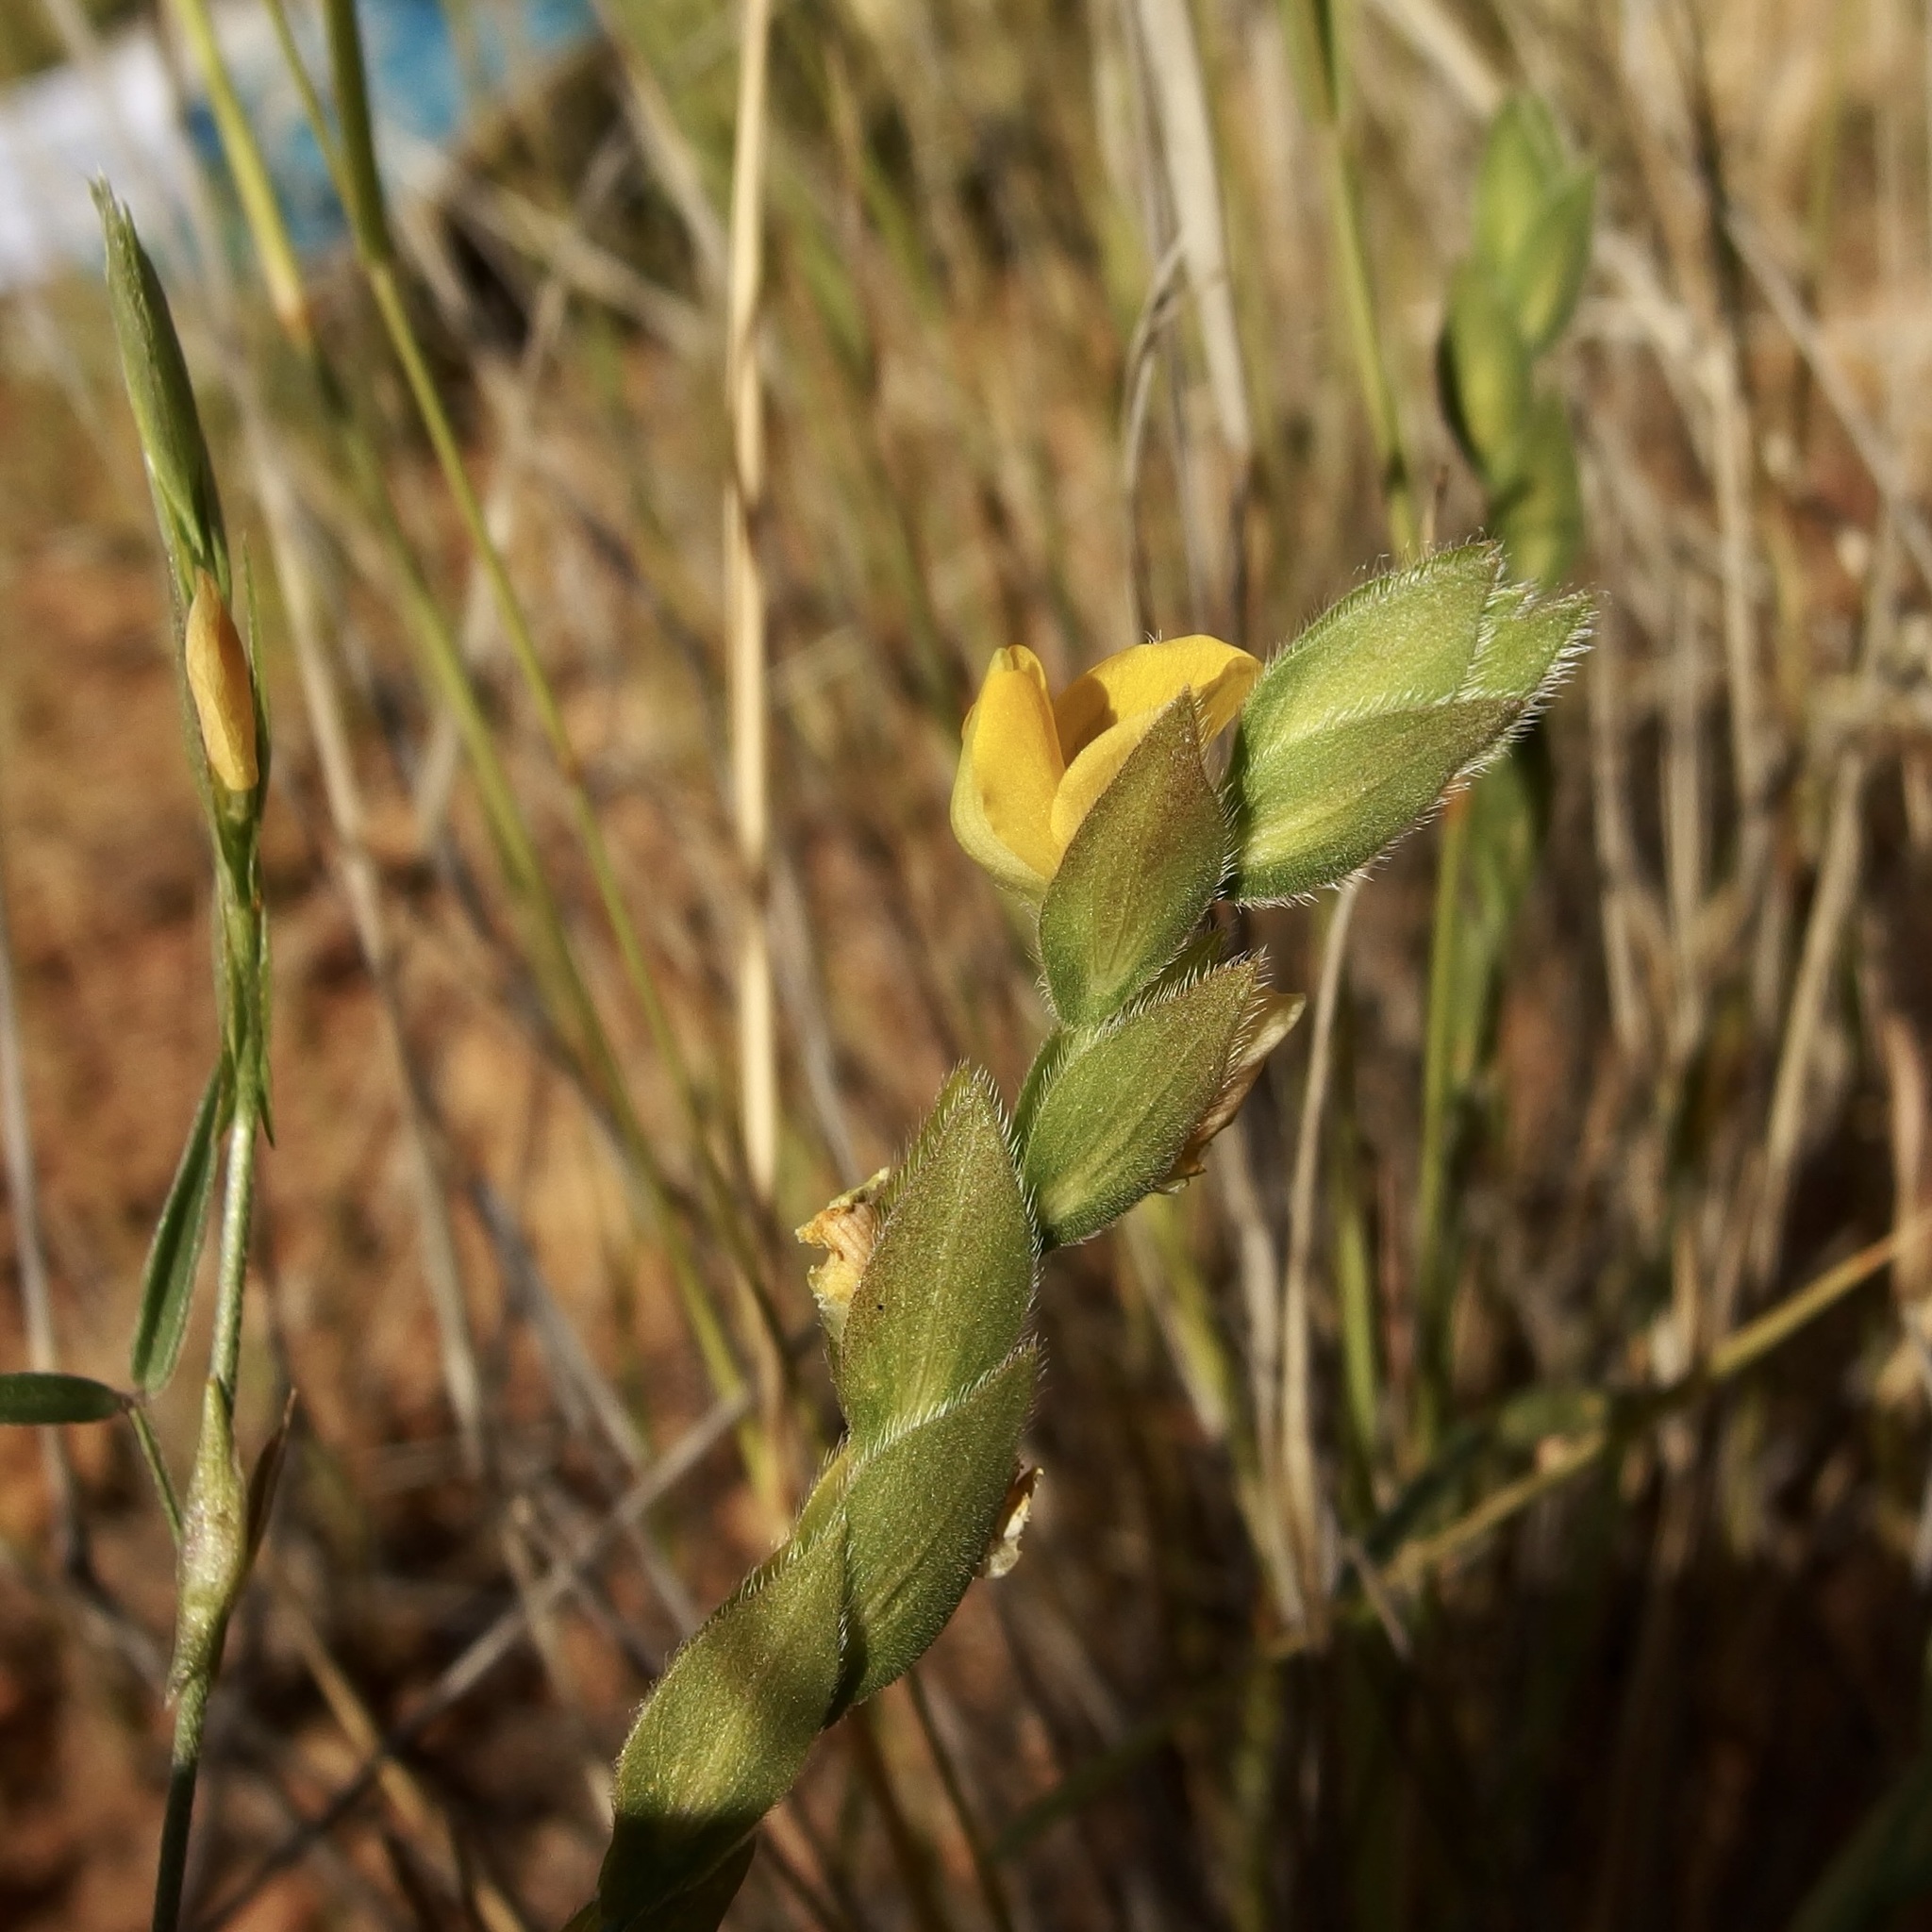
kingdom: Plantae
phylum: Tracheophyta
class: Magnoliopsida
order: Fabales
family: Fabaceae
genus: Zornia
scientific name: Zornia reticulata
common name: Reticulate viperina
